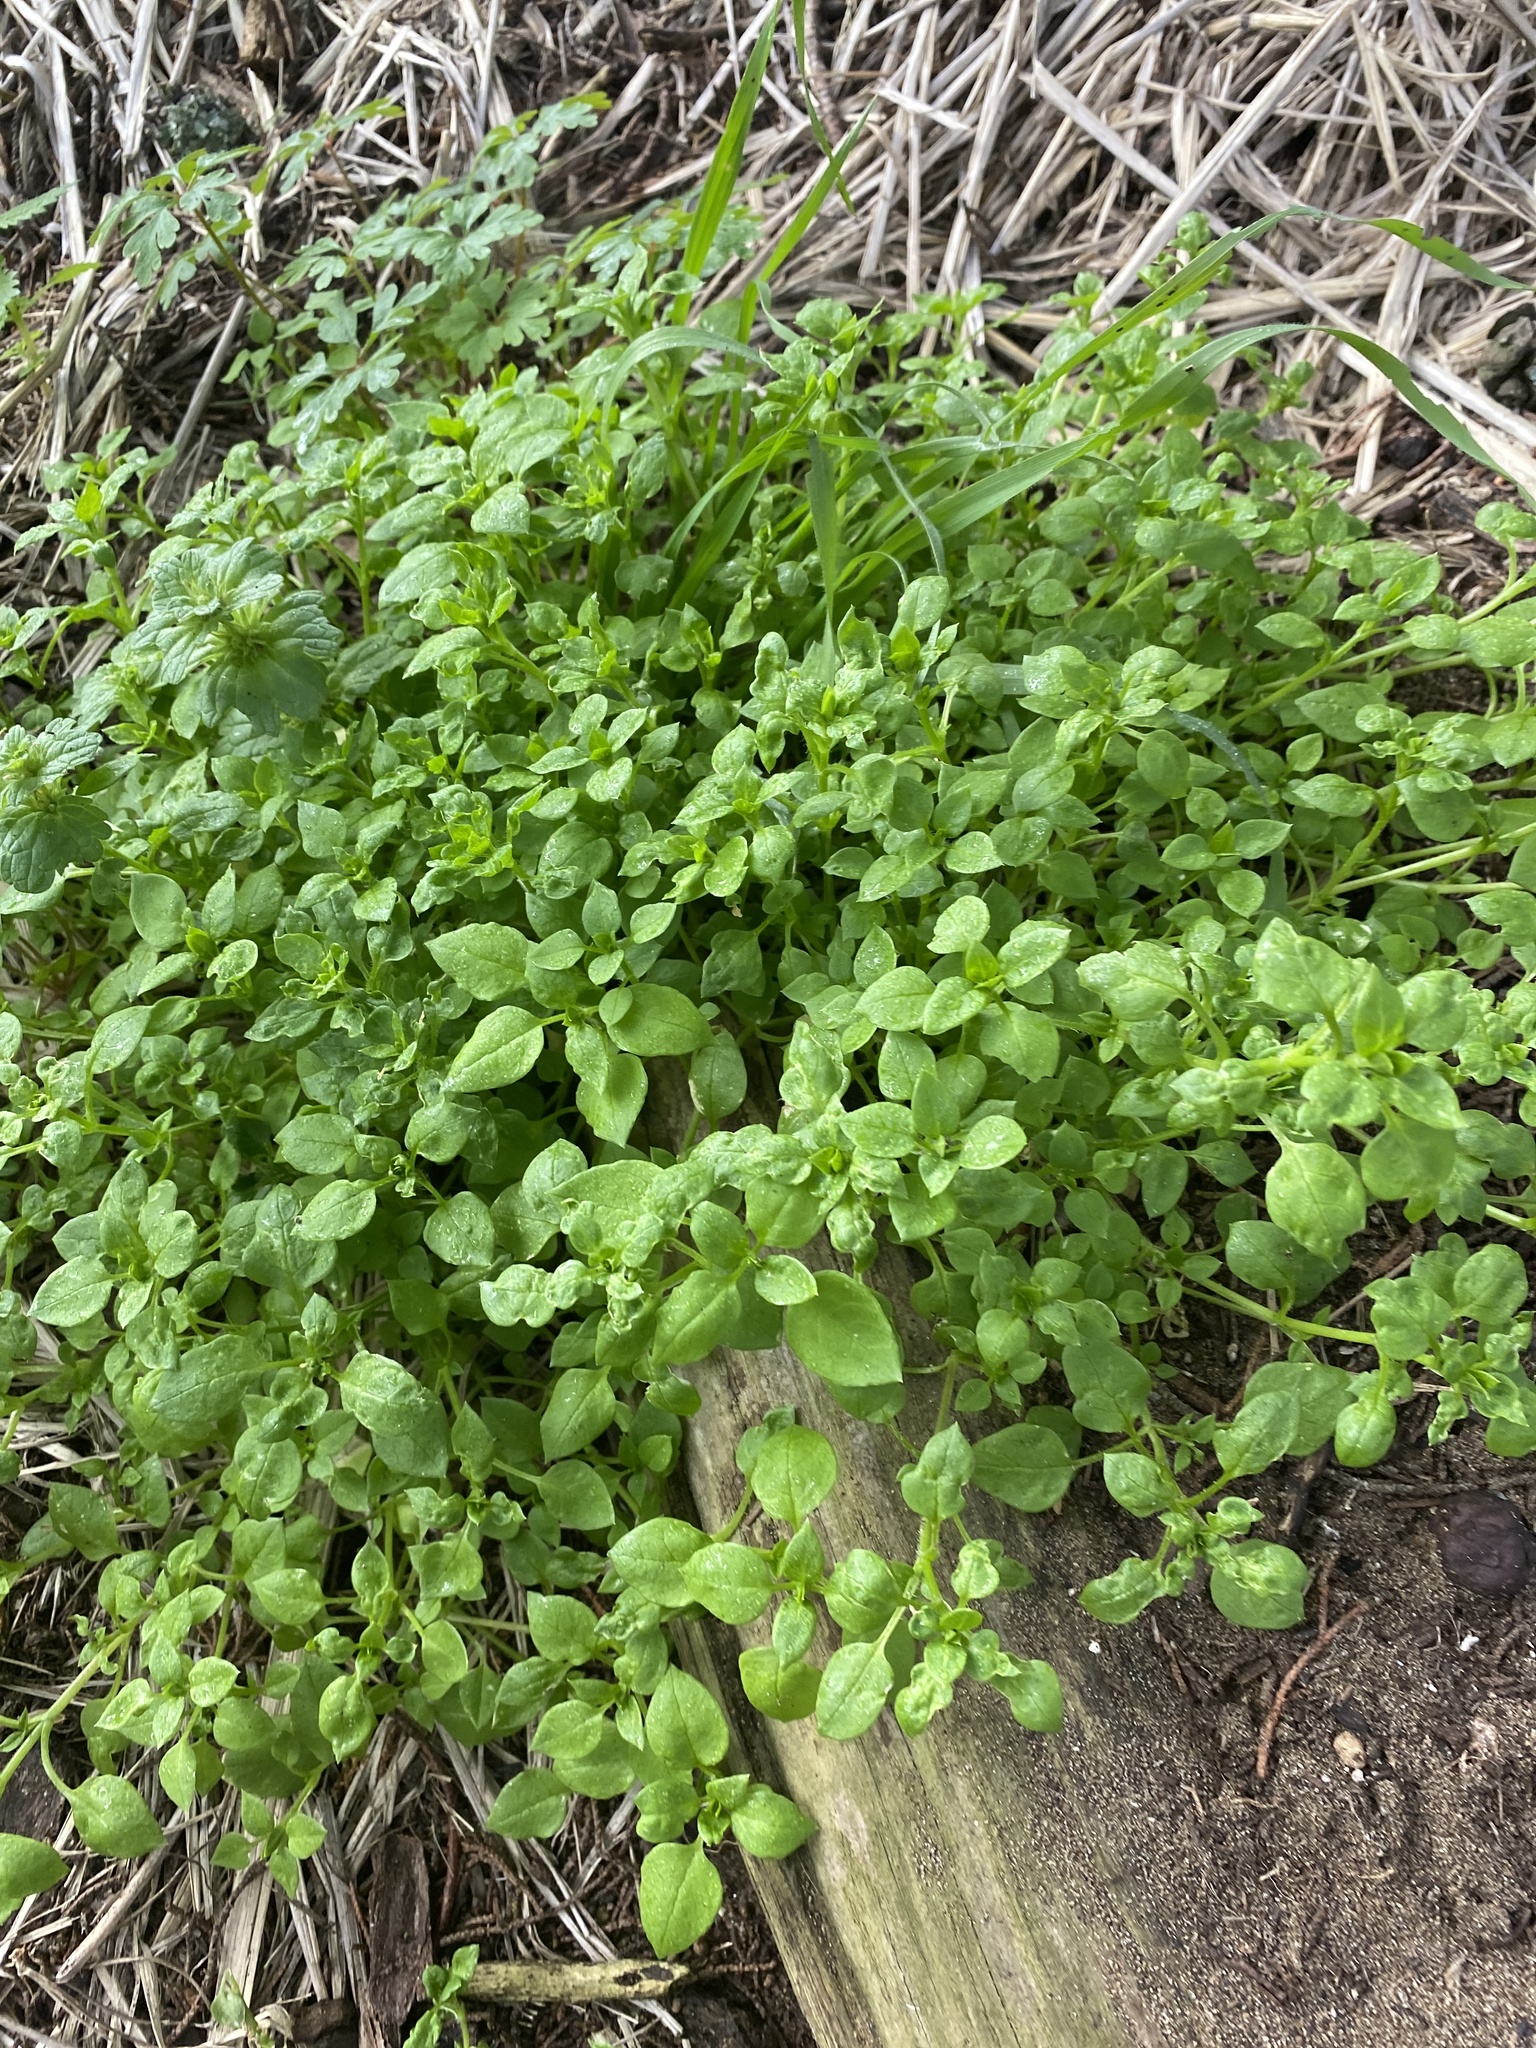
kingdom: Plantae
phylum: Tracheophyta
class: Magnoliopsida
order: Caryophyllales
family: Caryophyllaceae
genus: Stellaria
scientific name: Stellaria media
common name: Common chickweed
